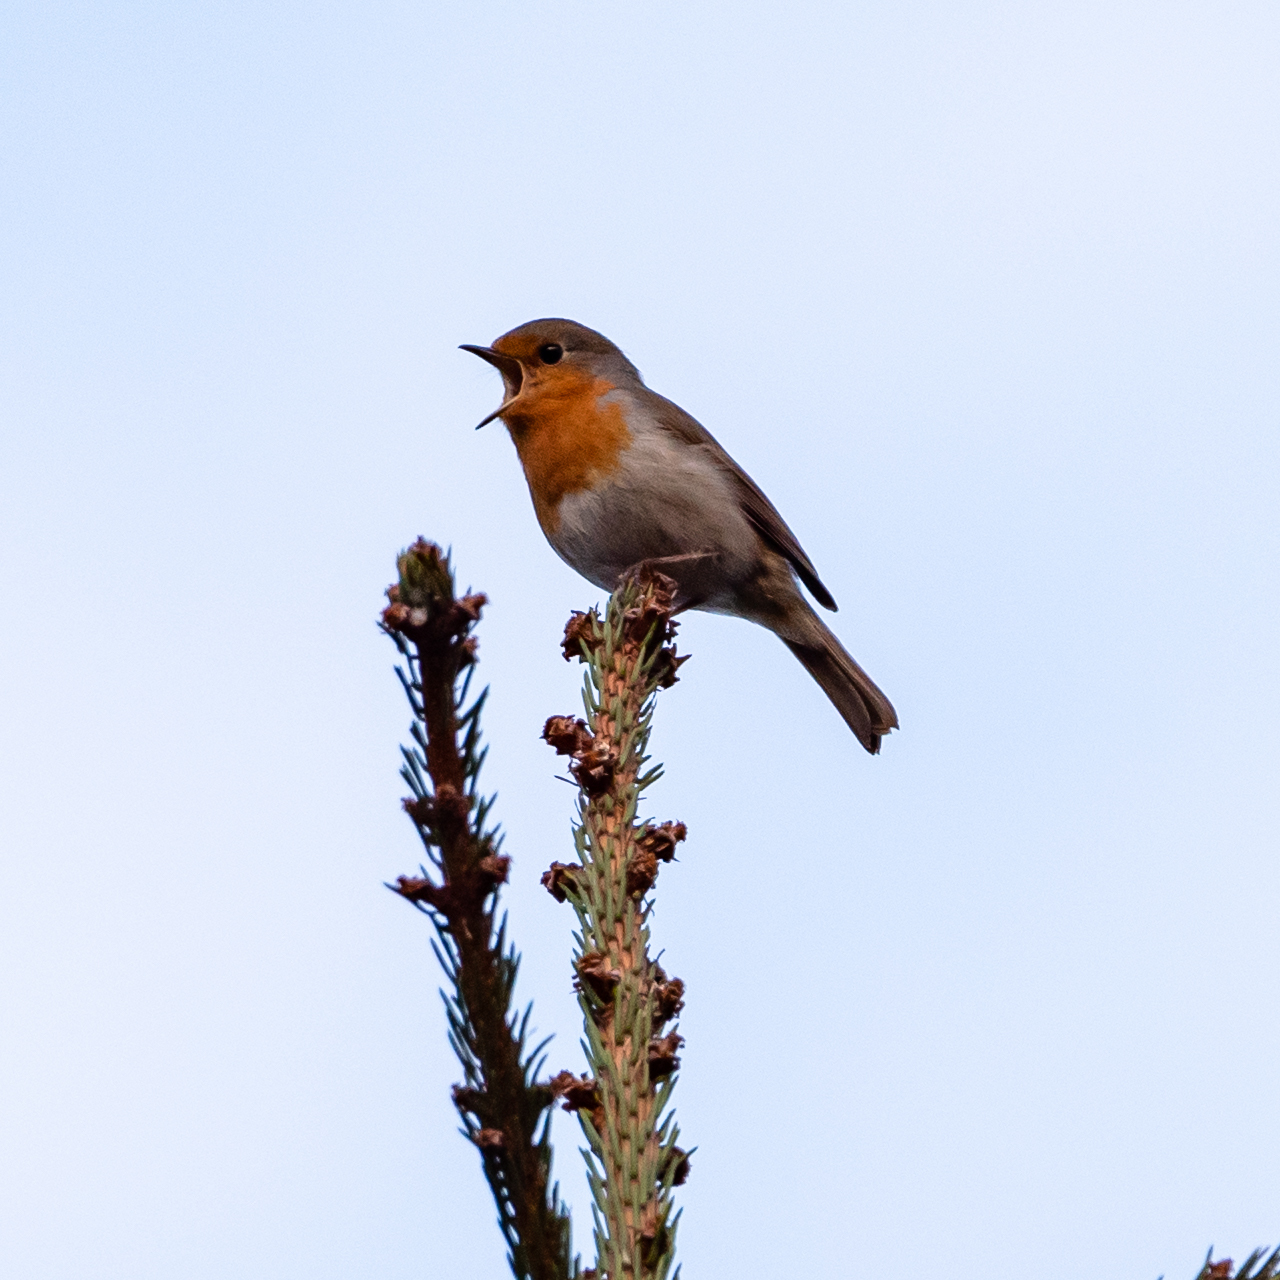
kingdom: Animalia
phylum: Chordata
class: Aves
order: Passeriformes
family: Muscicapidae
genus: Erithacus
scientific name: Erithacus rubecula
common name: European robin
